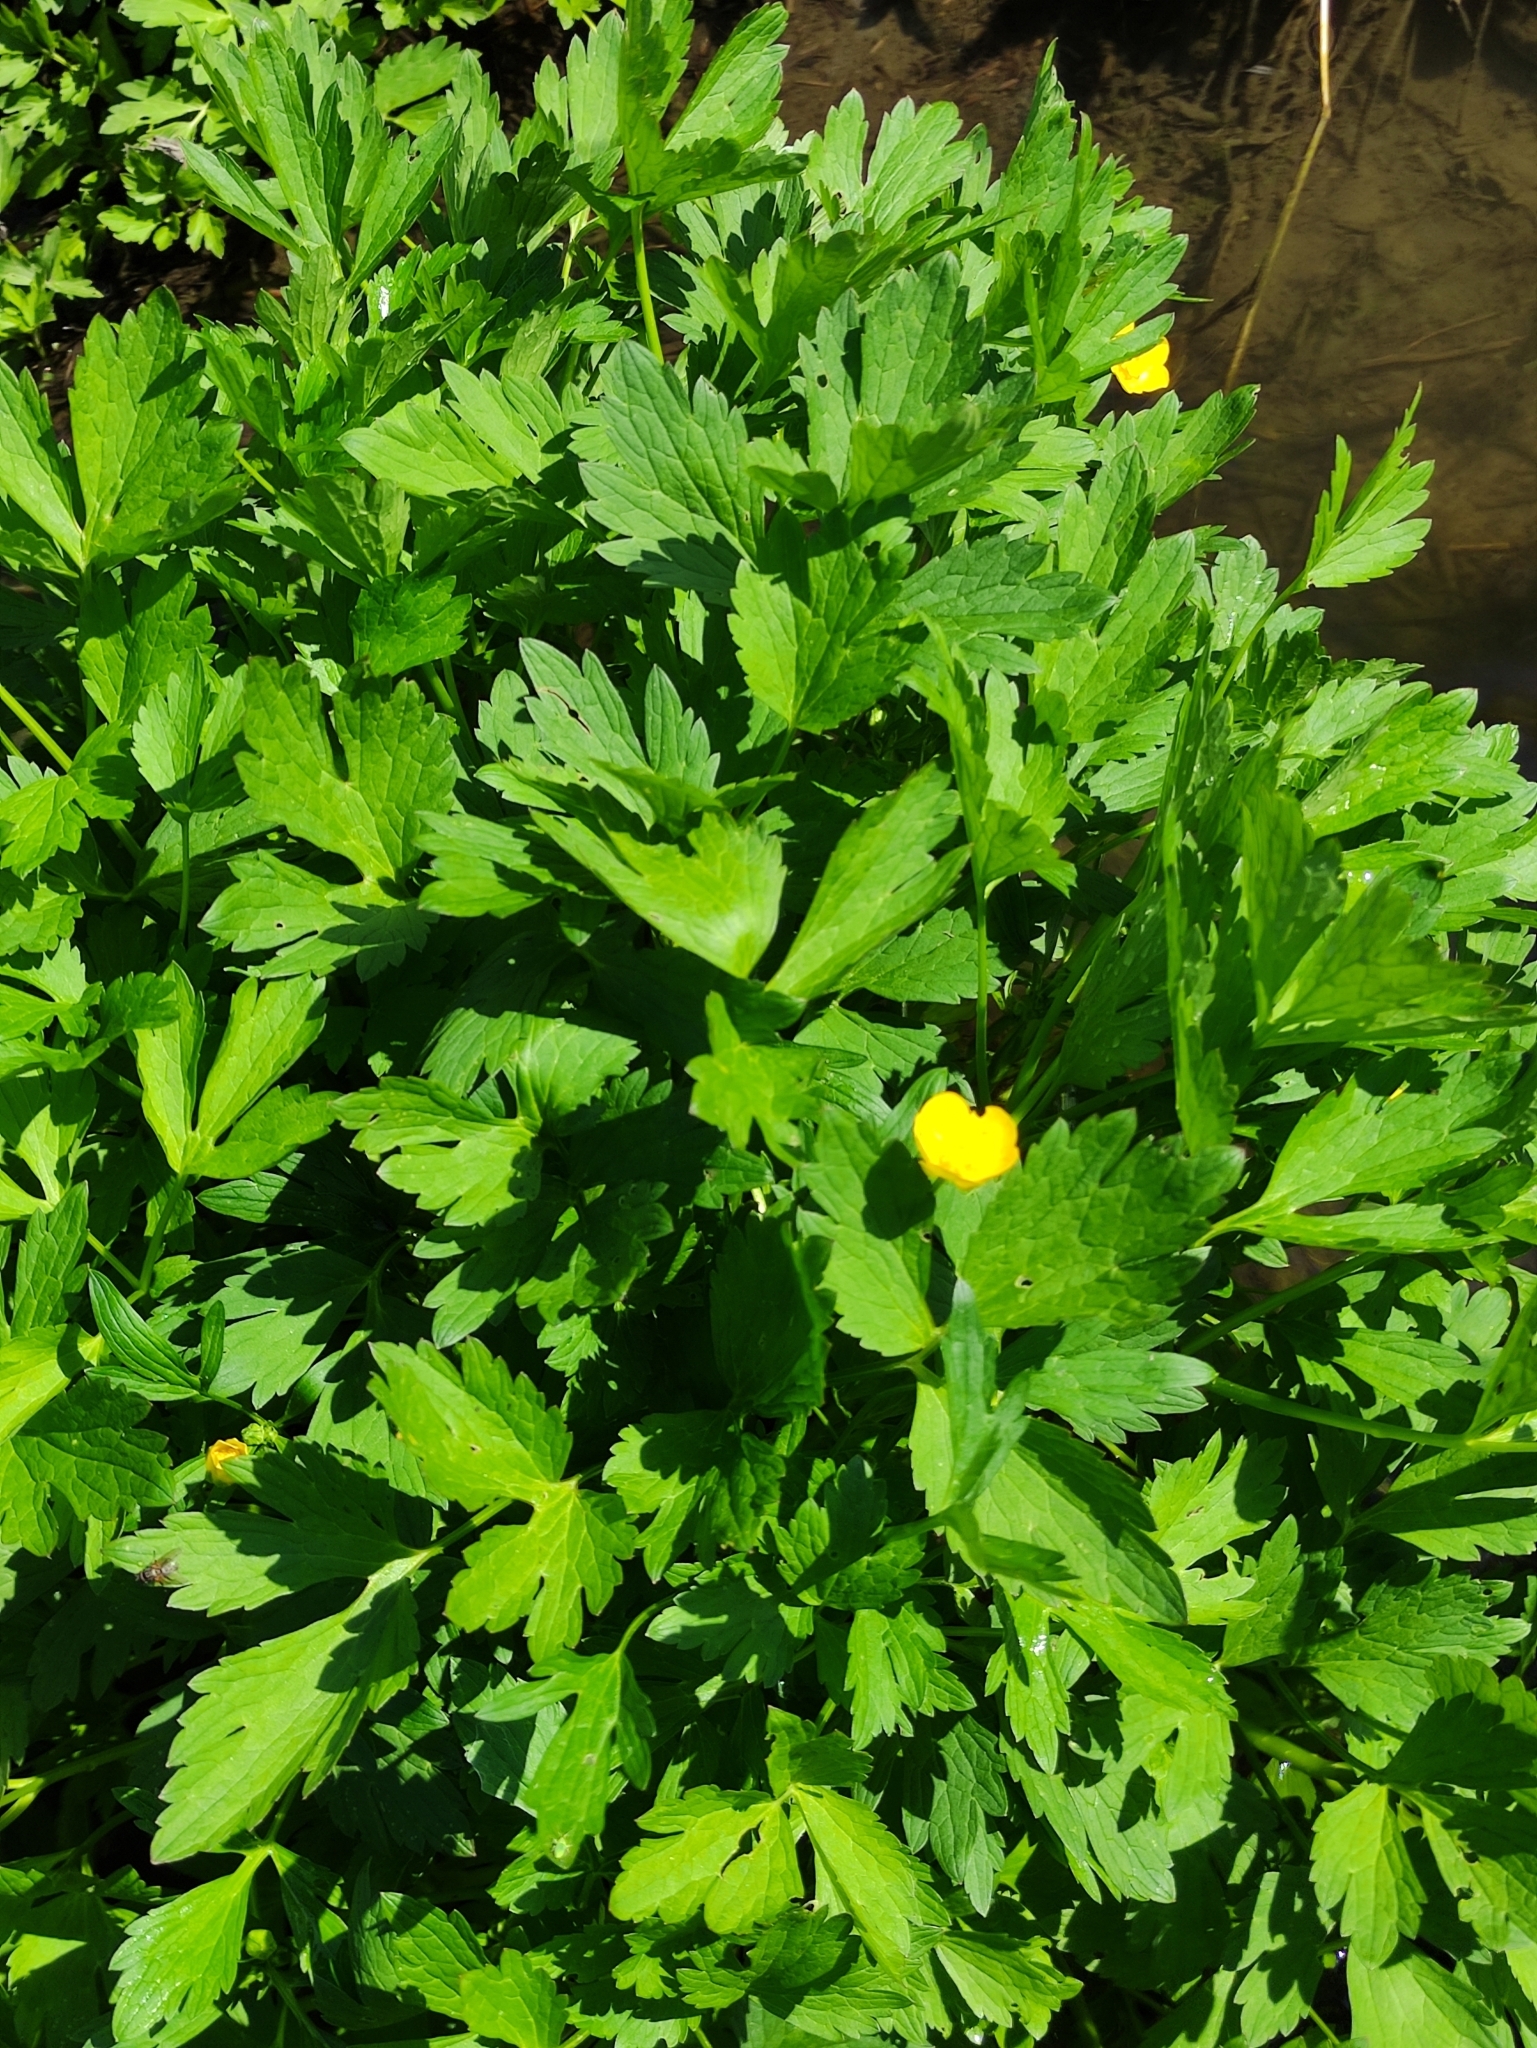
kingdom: Plantae
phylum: Tracheophyta
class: Magnoliopsida
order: Ranunculales
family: Ranunculaceae
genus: Ranunculus
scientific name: Ranunculus repens
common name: Creeping buttercup
